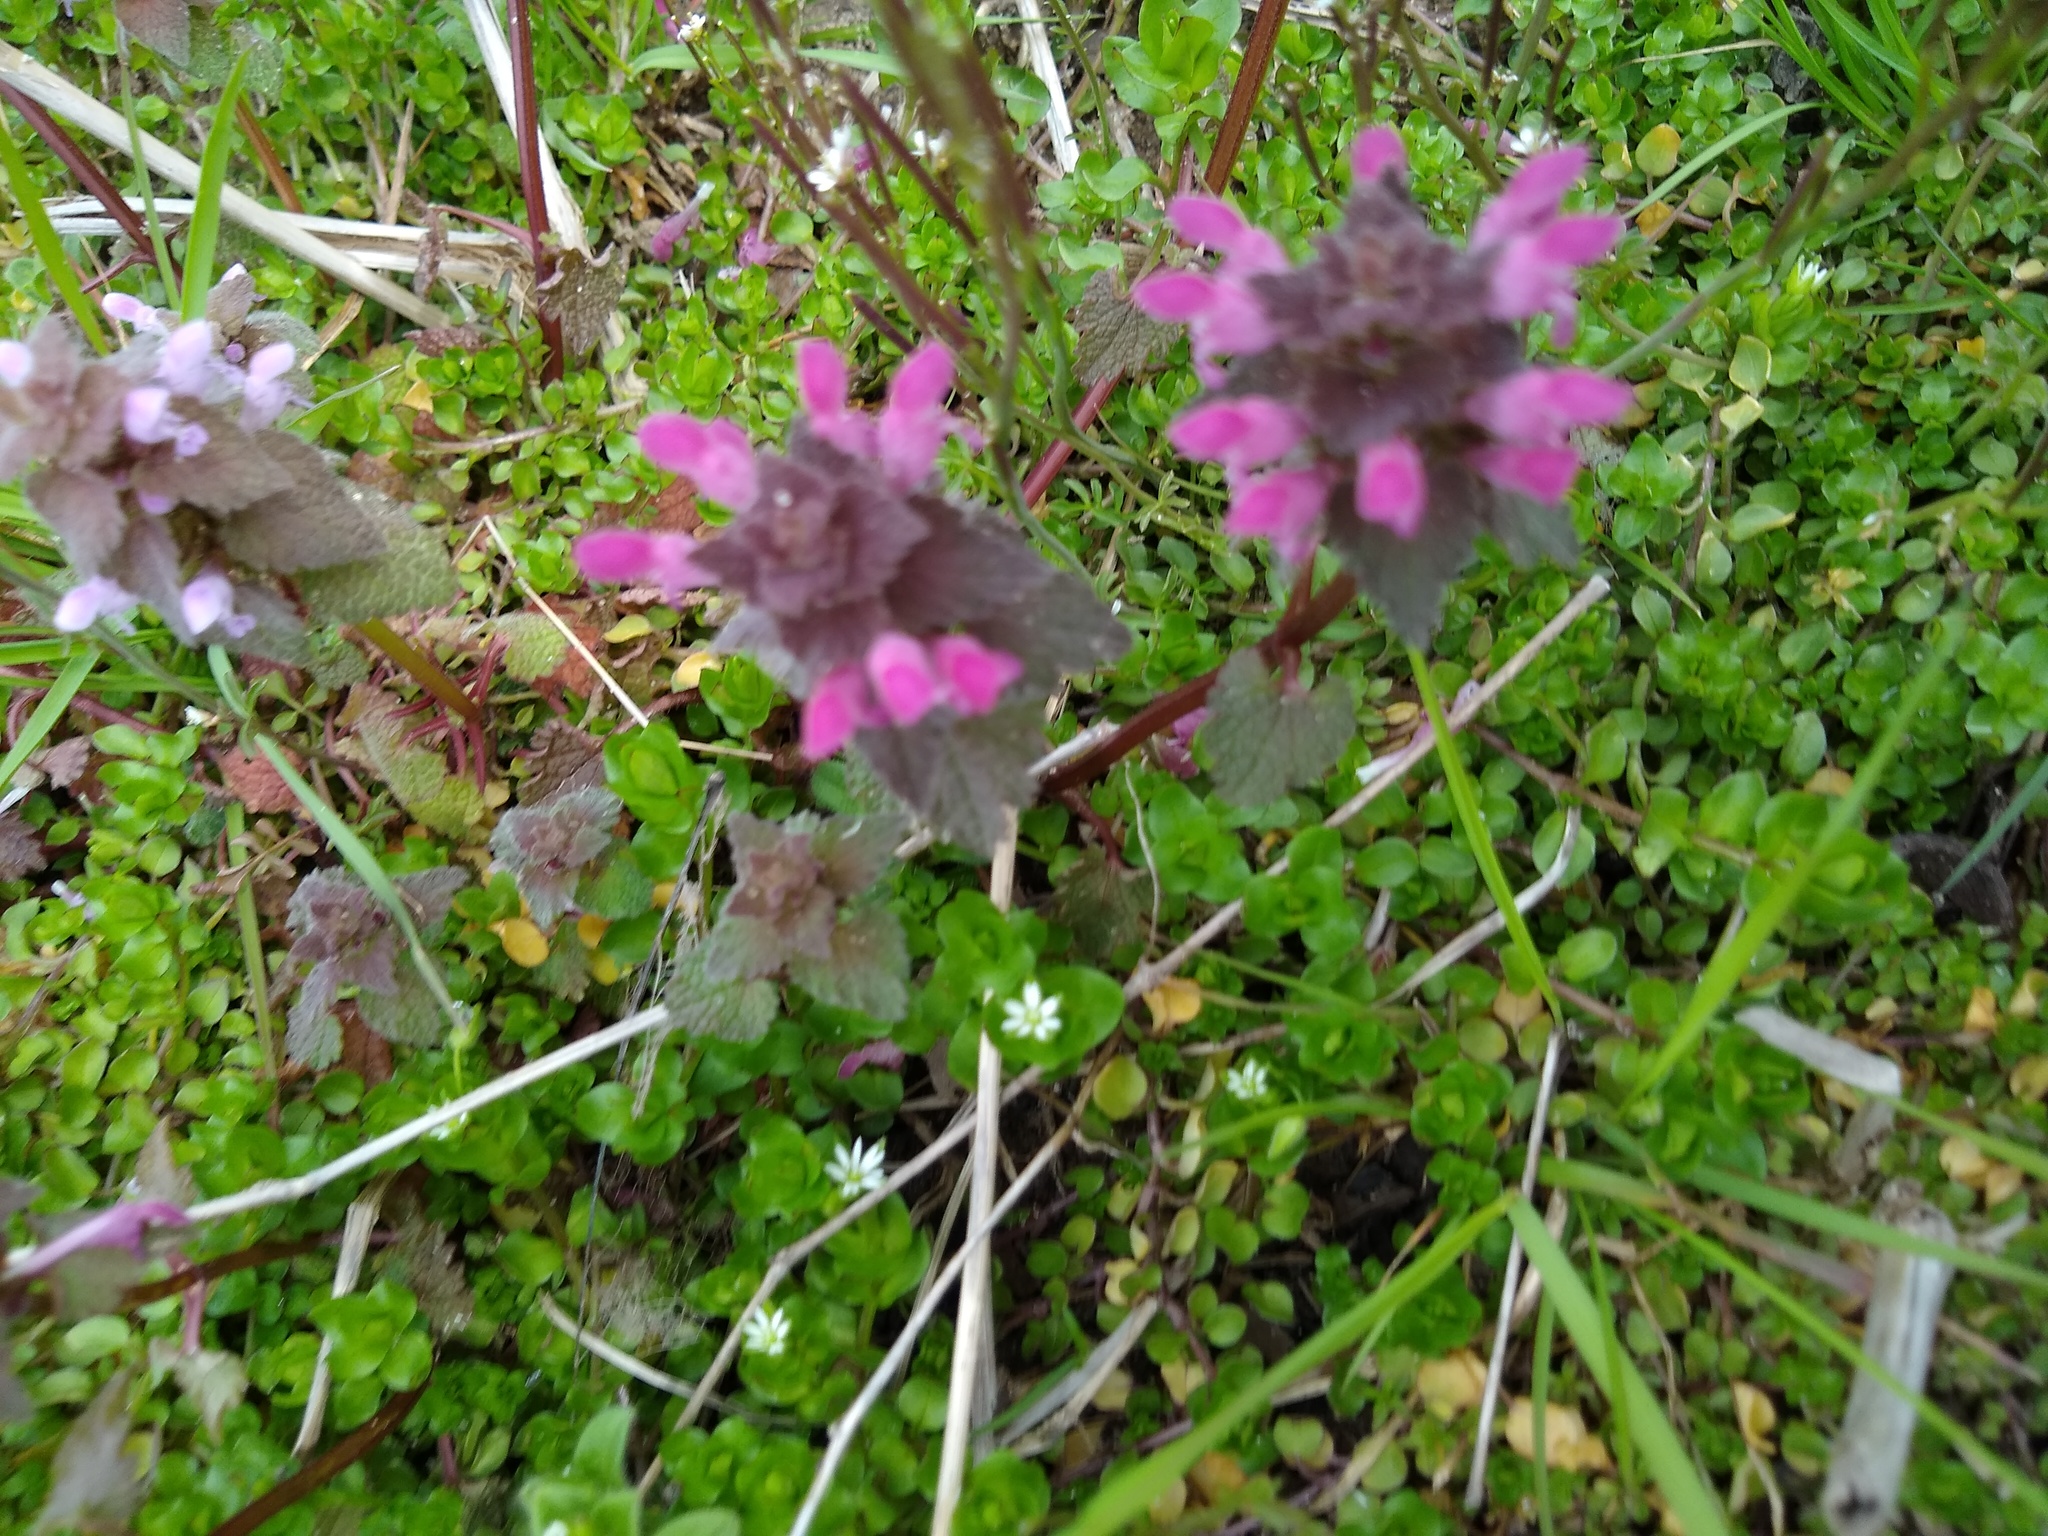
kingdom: Plantae
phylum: Tracheophyta
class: Magnoliopsida
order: Lamiales
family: Lamiaceae
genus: Lamium
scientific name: Lamium purpureum
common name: Red dead-nettle
